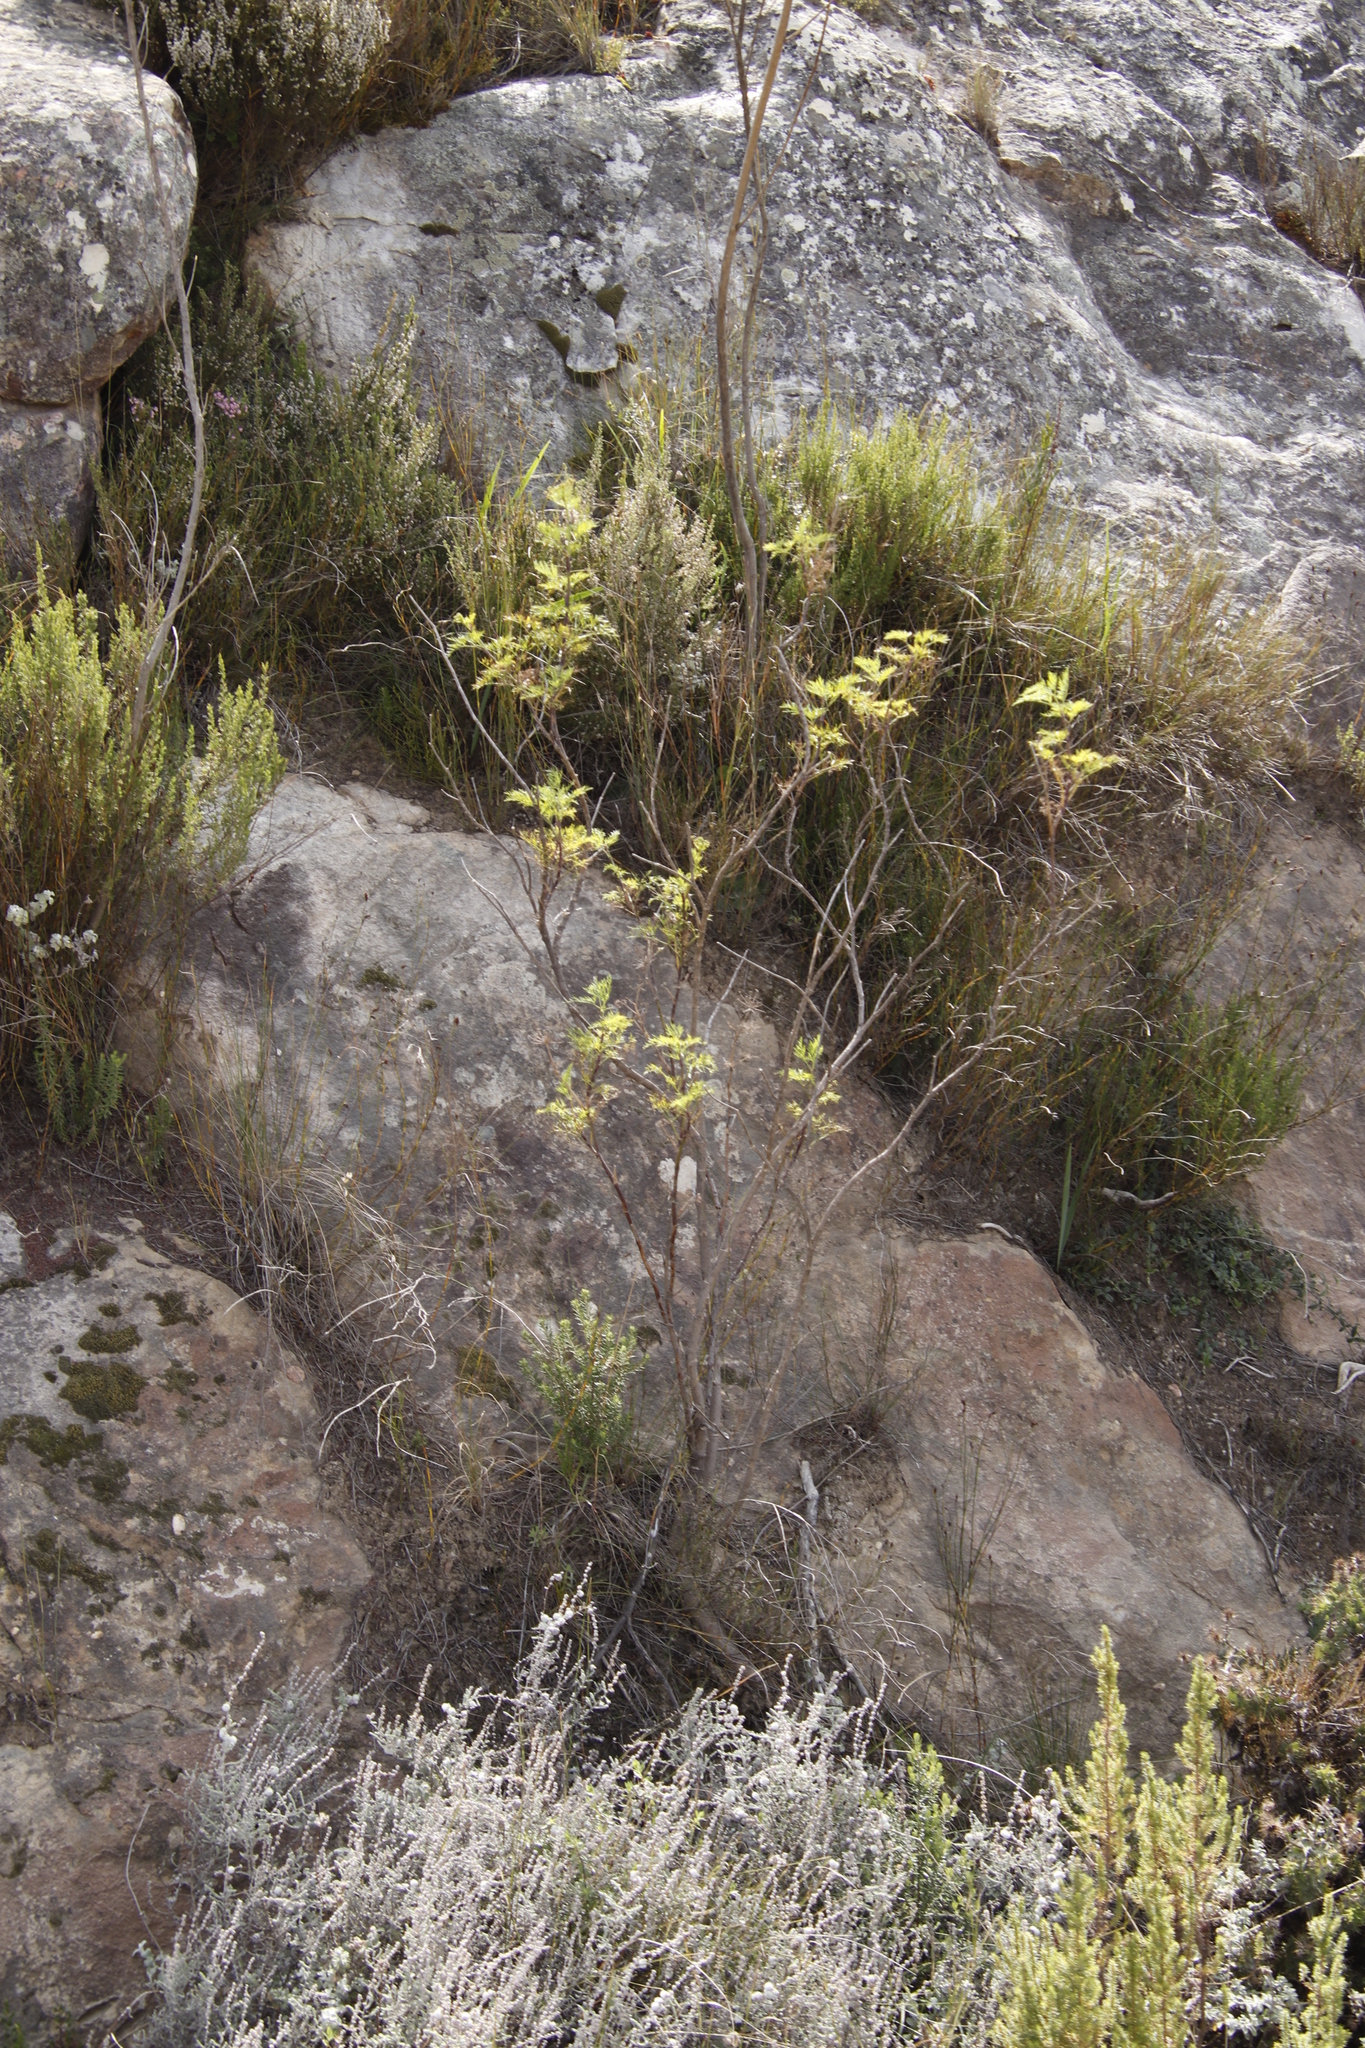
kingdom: Plantae
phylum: Tracheophyta
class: Magnoliopsida
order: Apiales
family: Apiaceae
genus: Notobubon
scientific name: Notobubon tenuifolium
